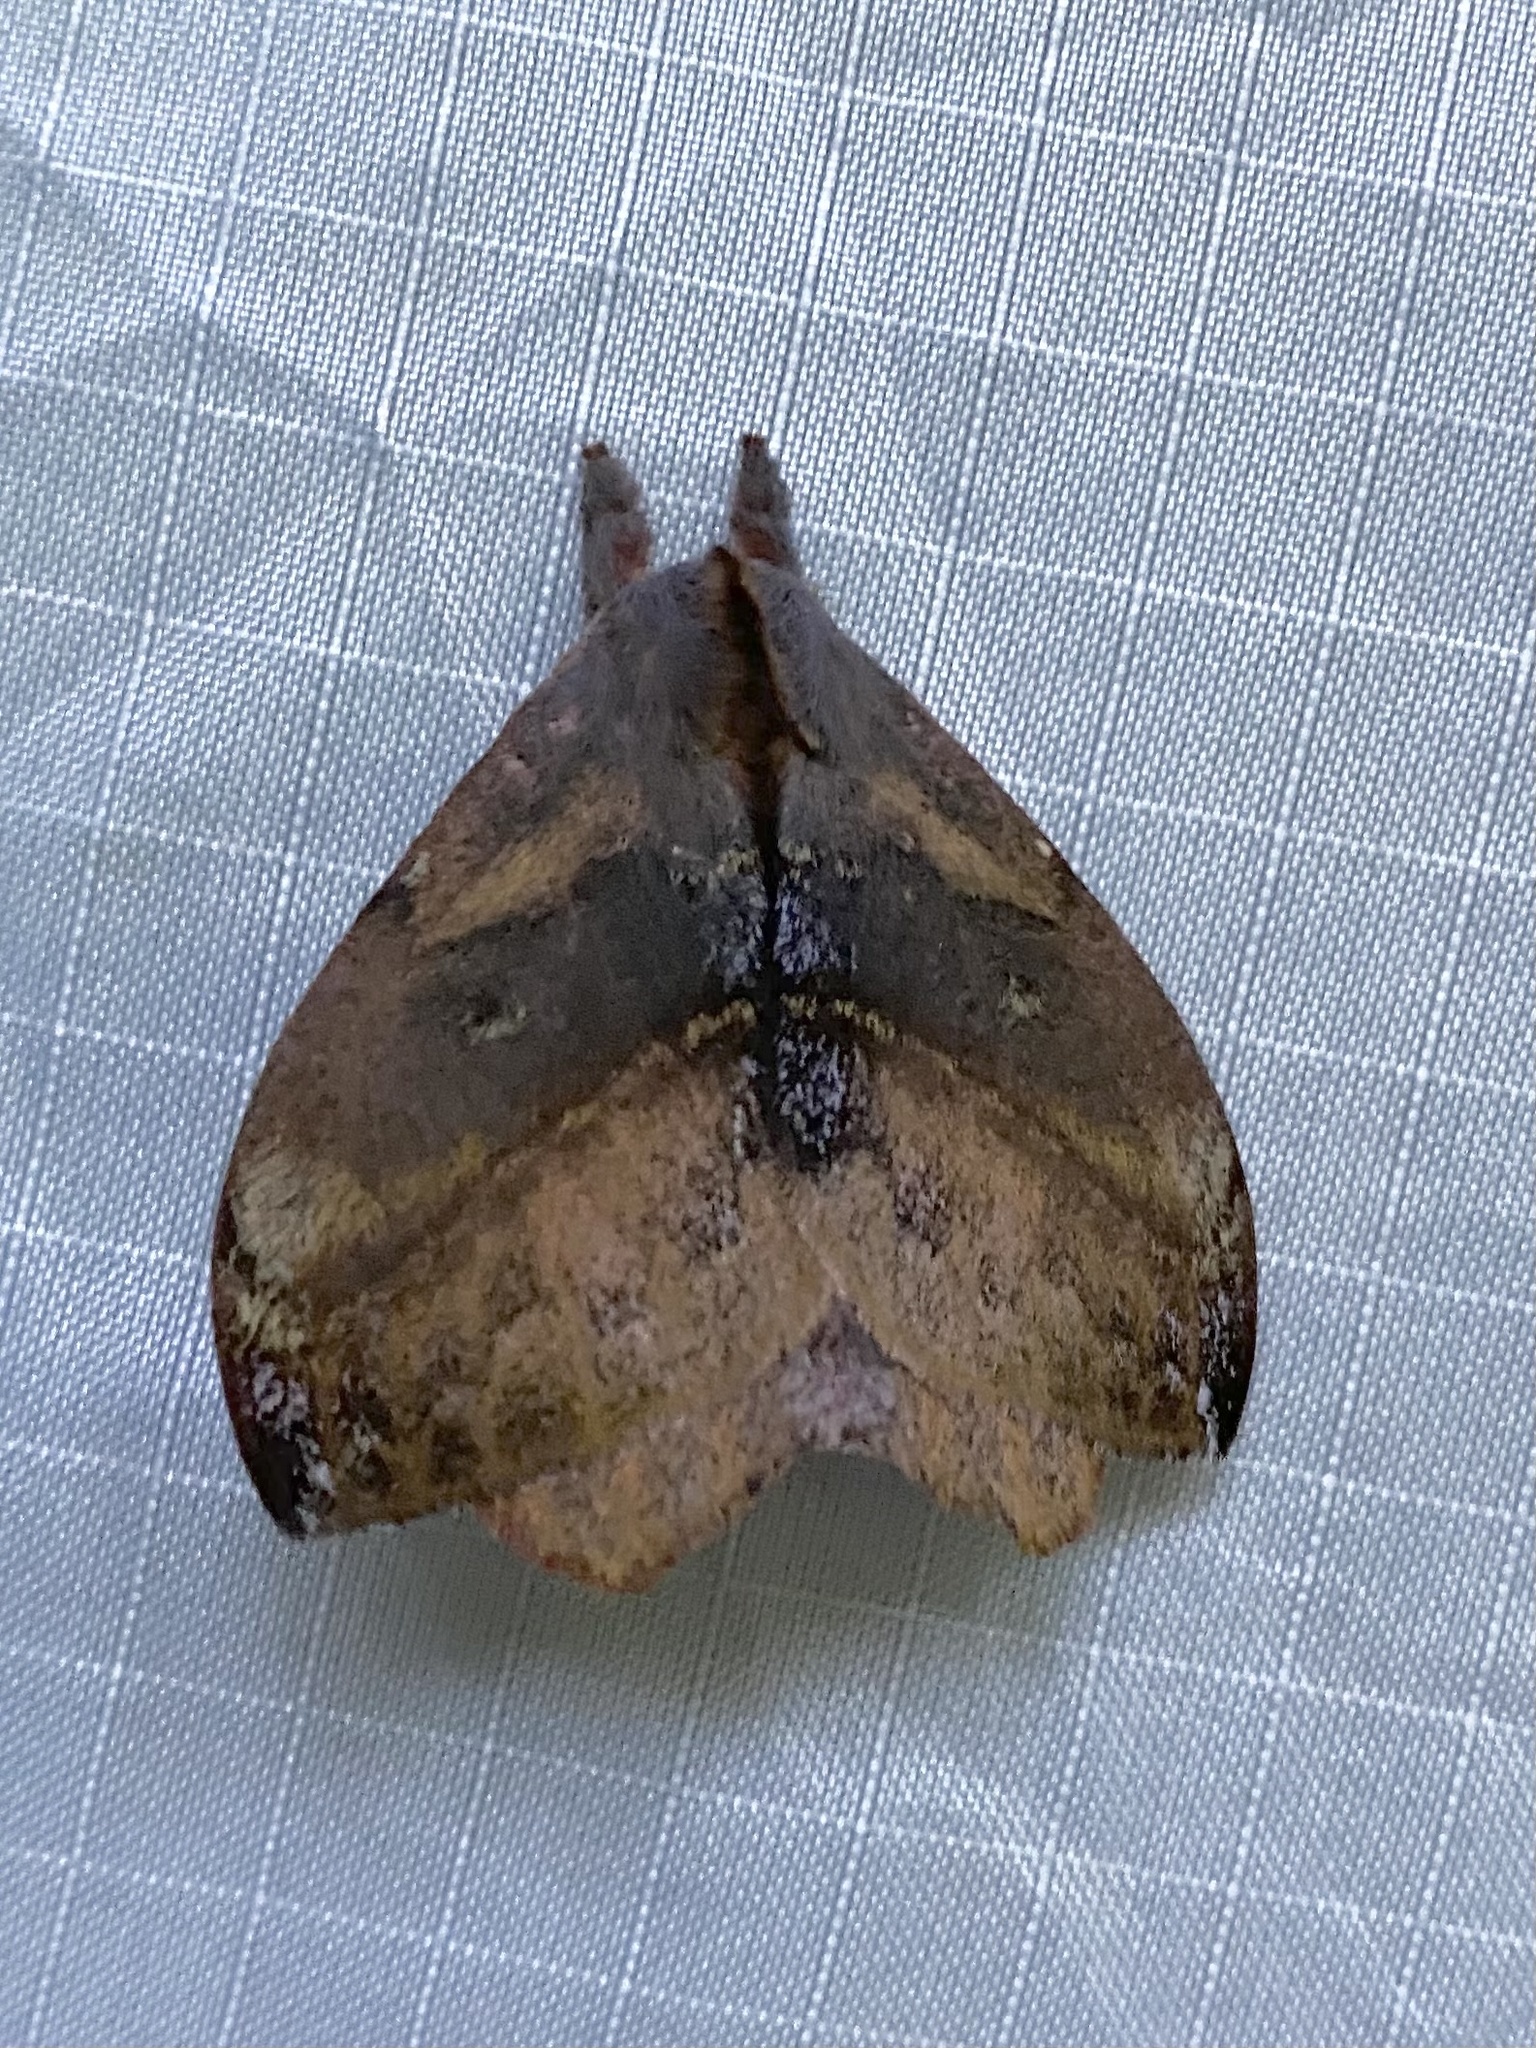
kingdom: Animalia
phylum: Arthropoda
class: Insecta
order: Lepidoptera
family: Saturniidae
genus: Hylesia
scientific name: Hylesia aeneides
